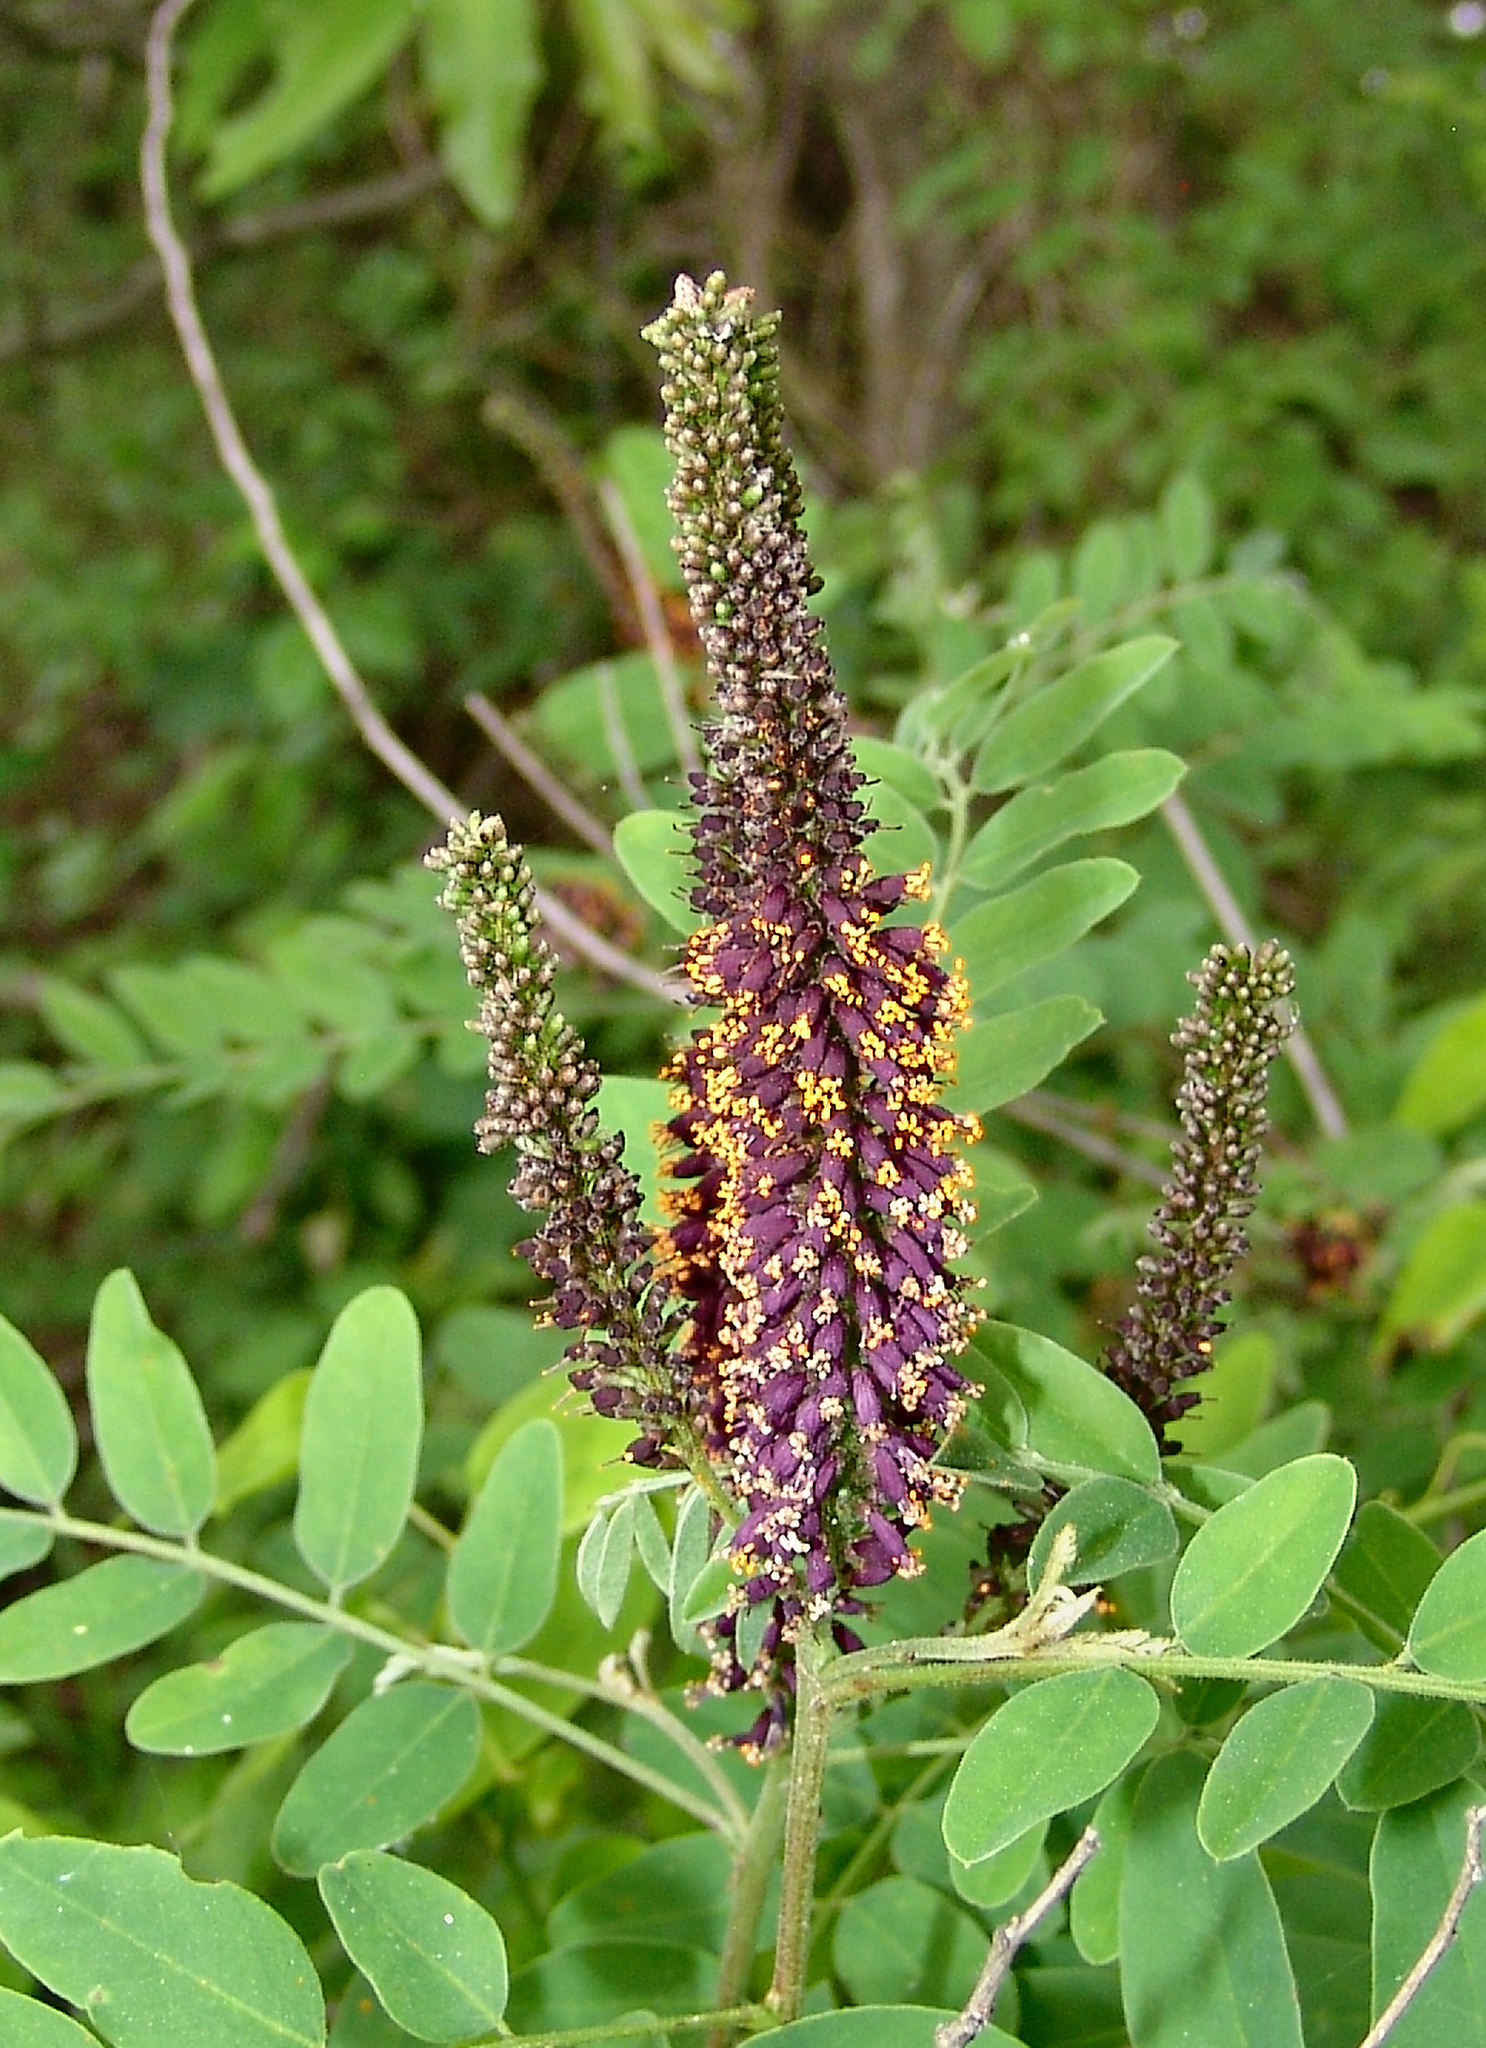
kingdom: Plantae
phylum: Tracheophyta
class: Magnoliopsida
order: Fabales
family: Fabaceae
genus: Amorpha
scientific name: Amorpha fruticosa
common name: False indigo
